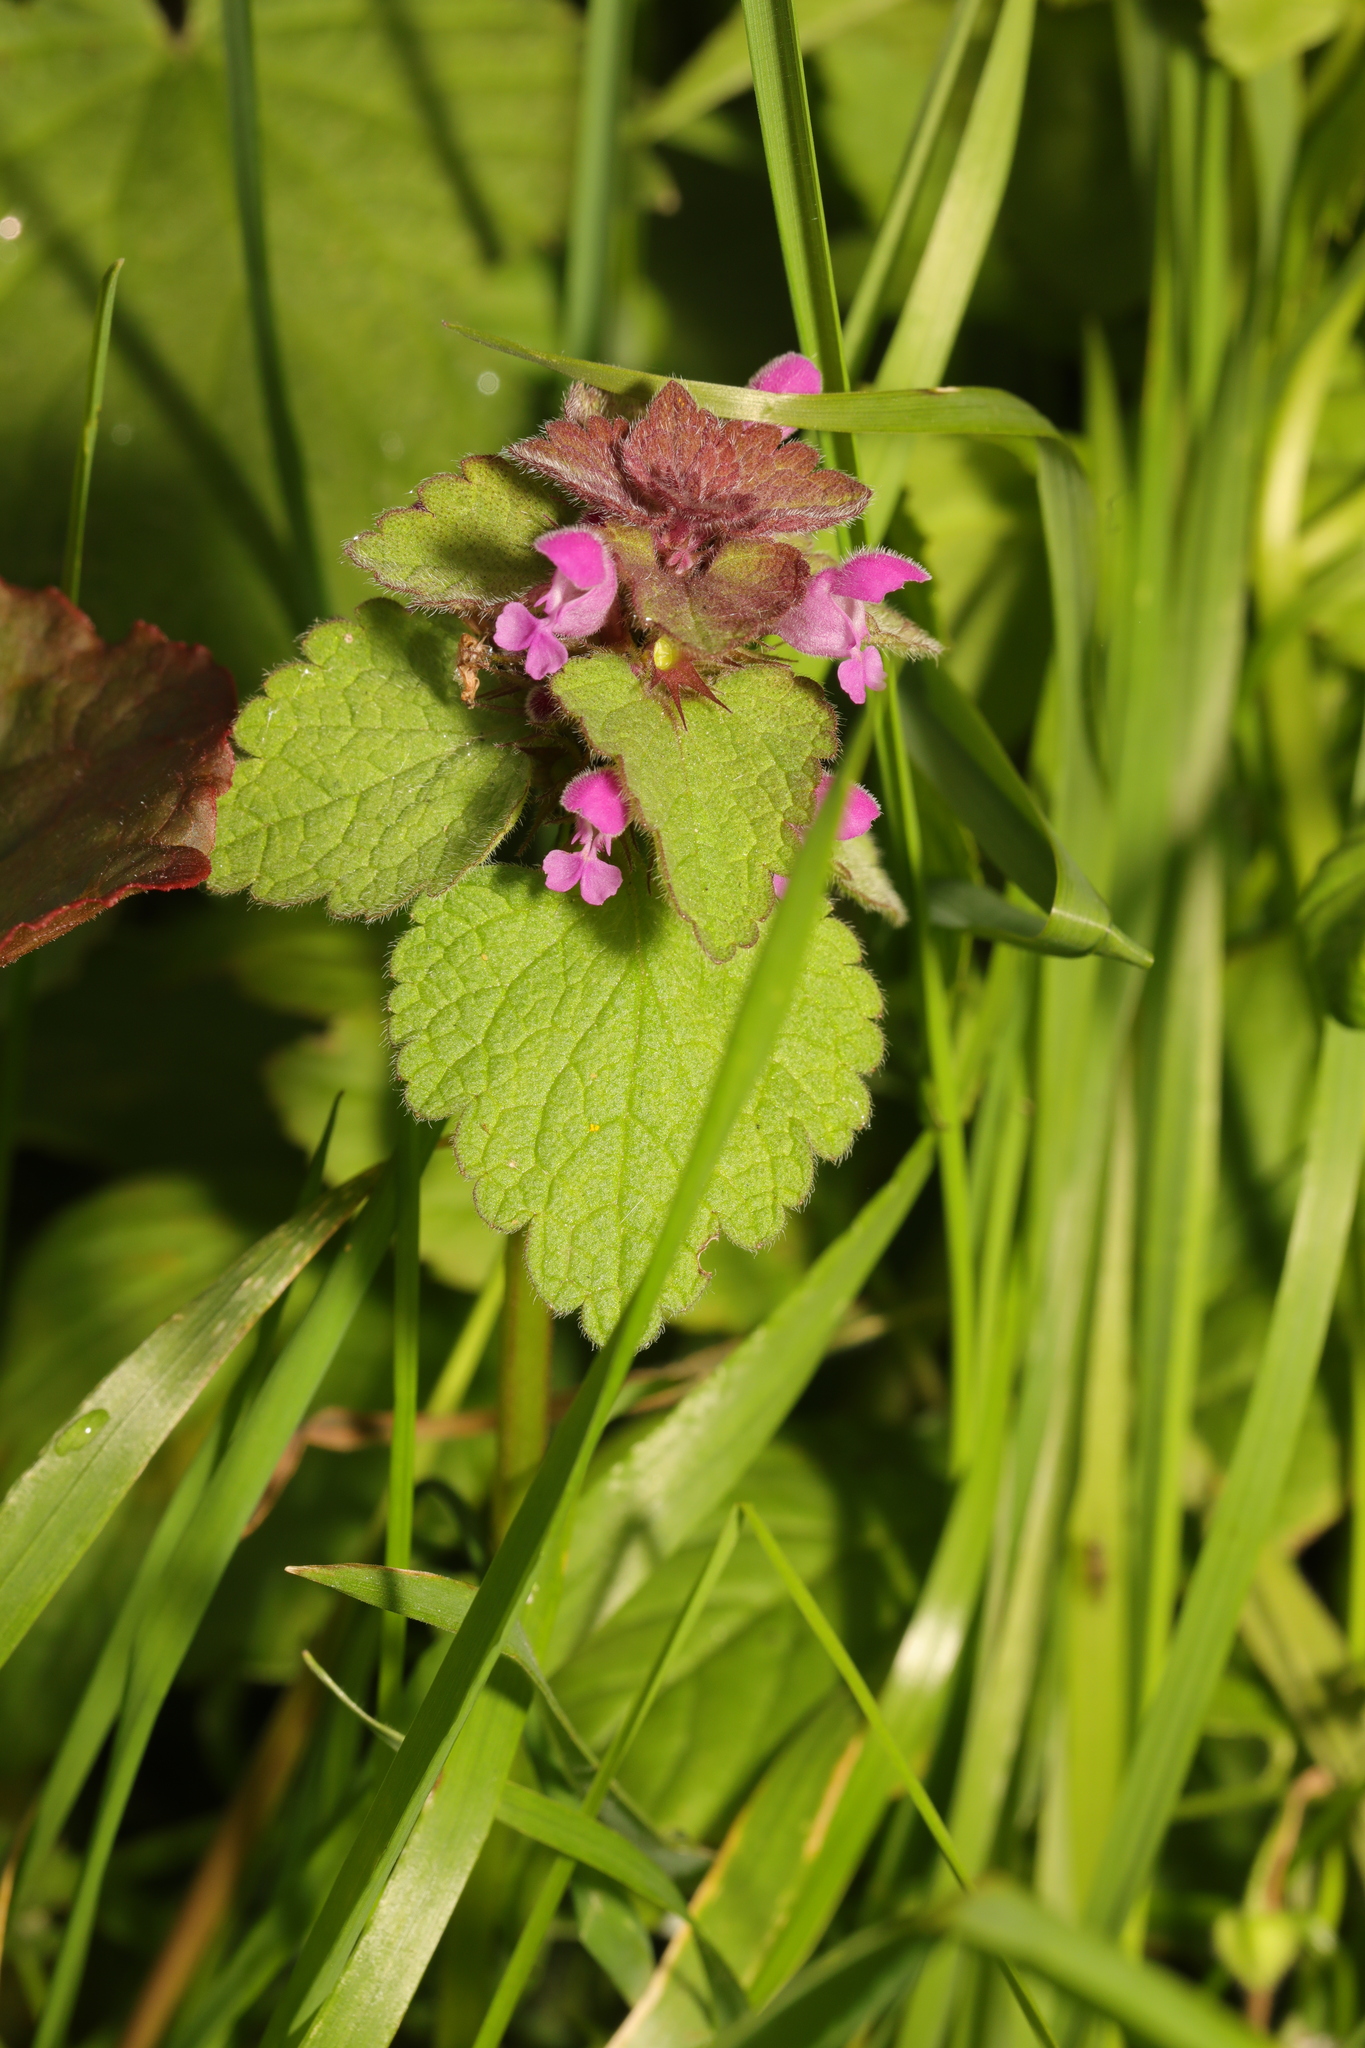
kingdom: Plantae
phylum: Tracheophyta
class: Magnoliopsida
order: Lamiales
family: Lamiaceae
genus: Lamium
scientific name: Lamium purpureum
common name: Red dead-nettle
